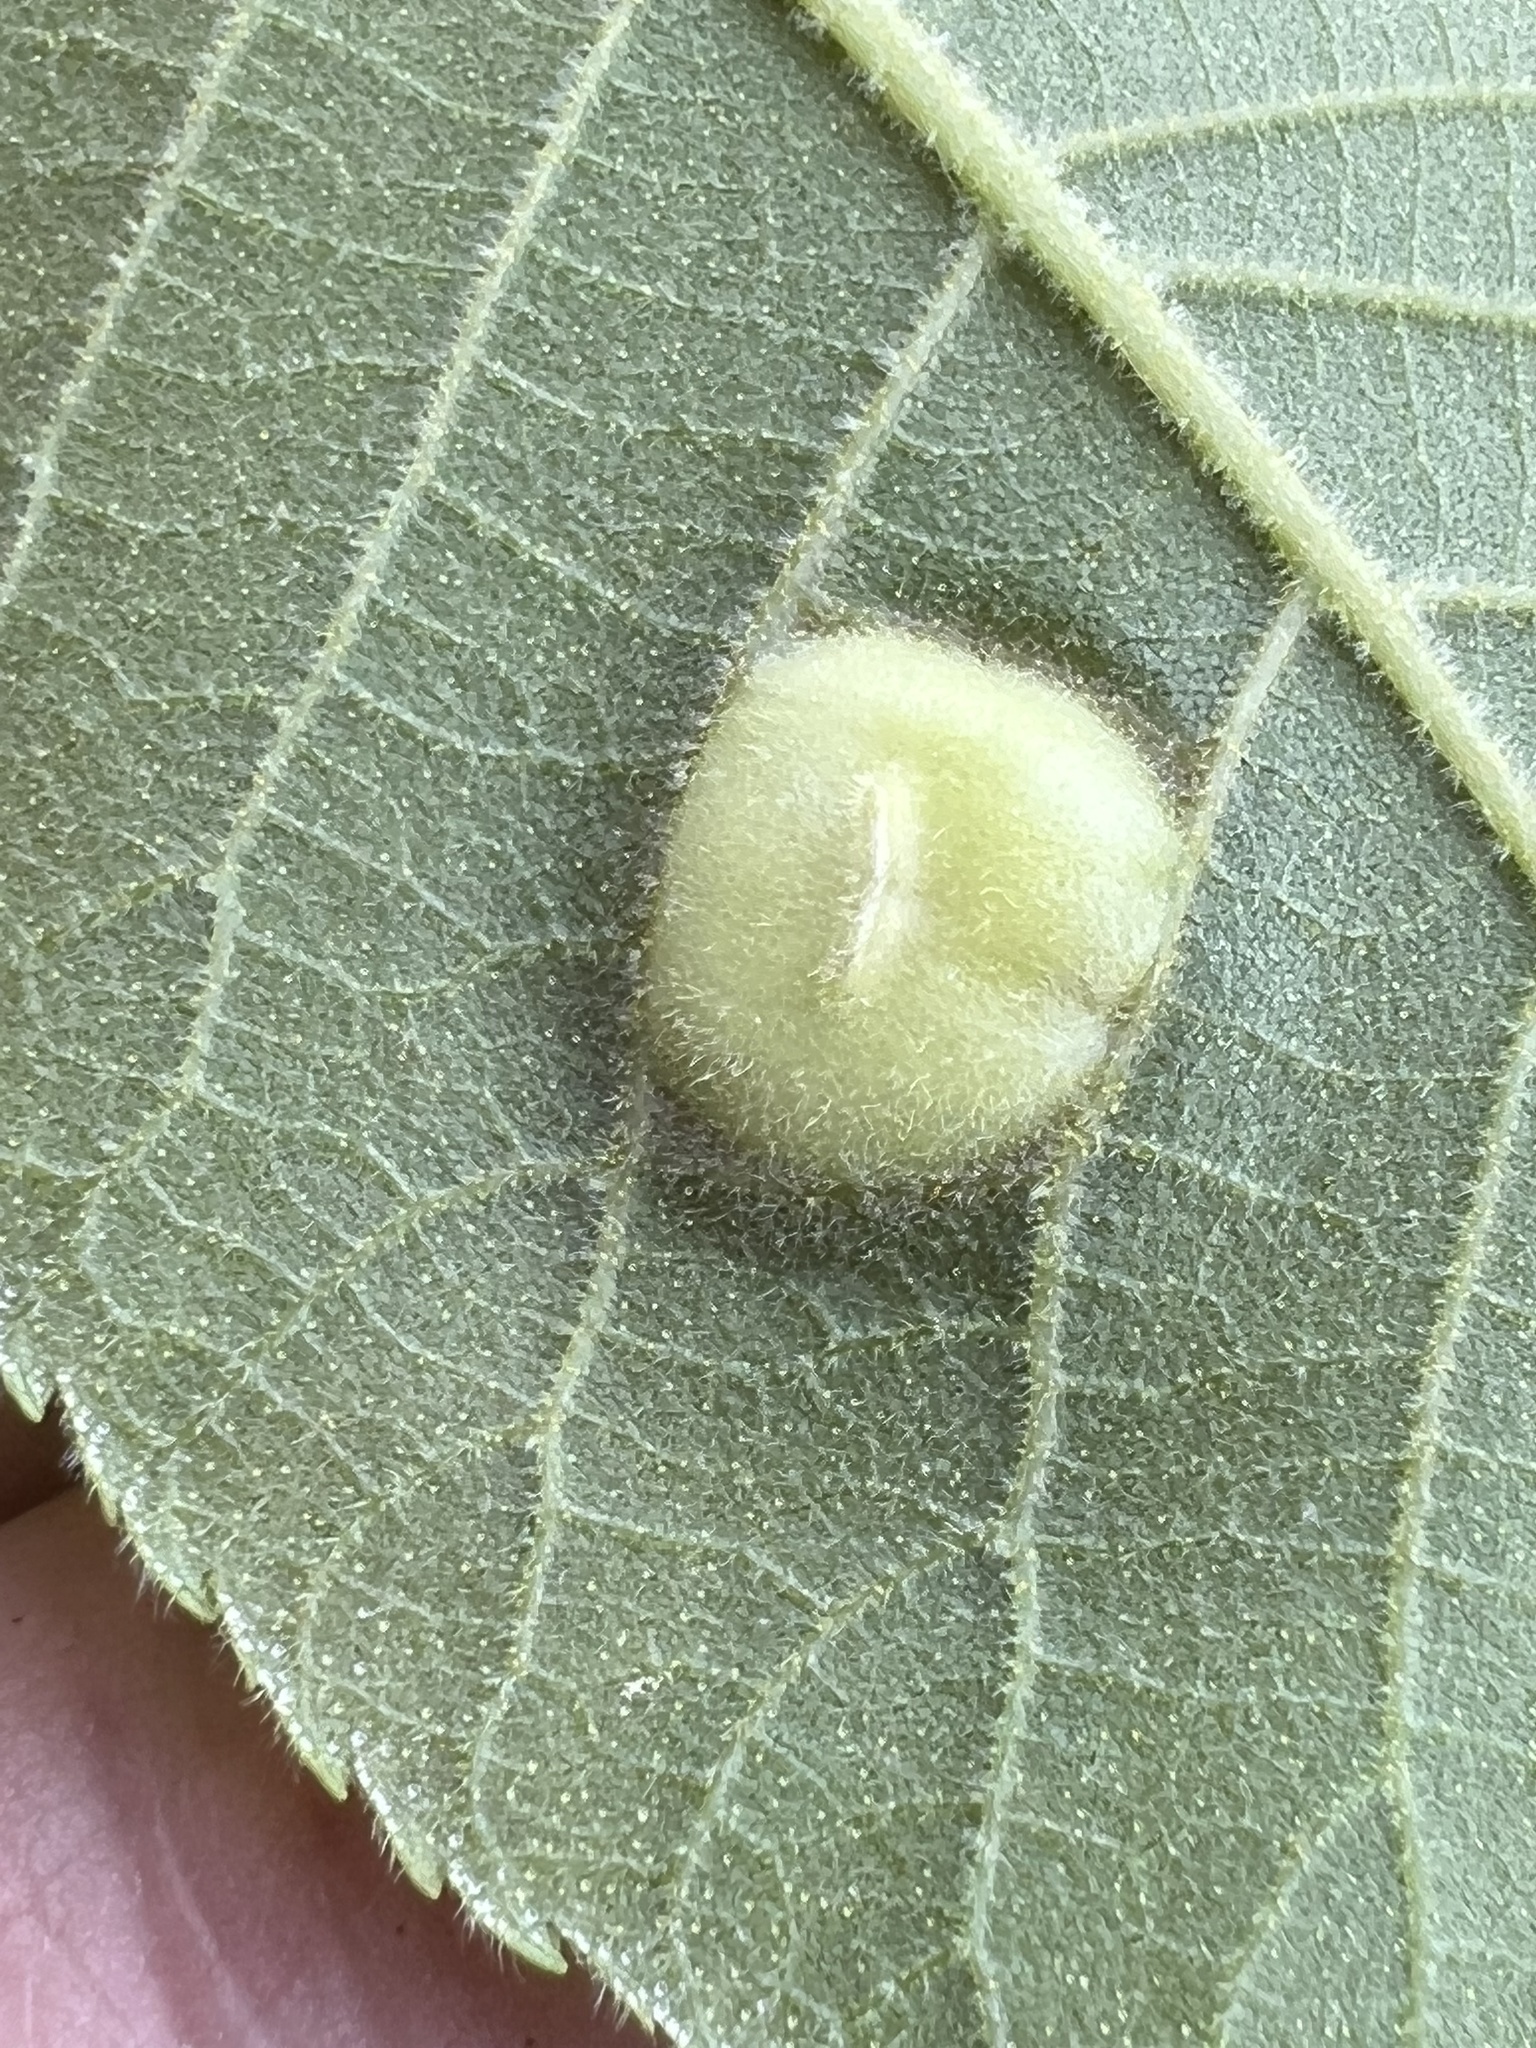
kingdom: Animalia
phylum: Arthropoda
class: Insecta
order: Hemiptera
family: Phylloxeridae
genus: Phylloxera
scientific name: Phylloxera caryae-scissa
